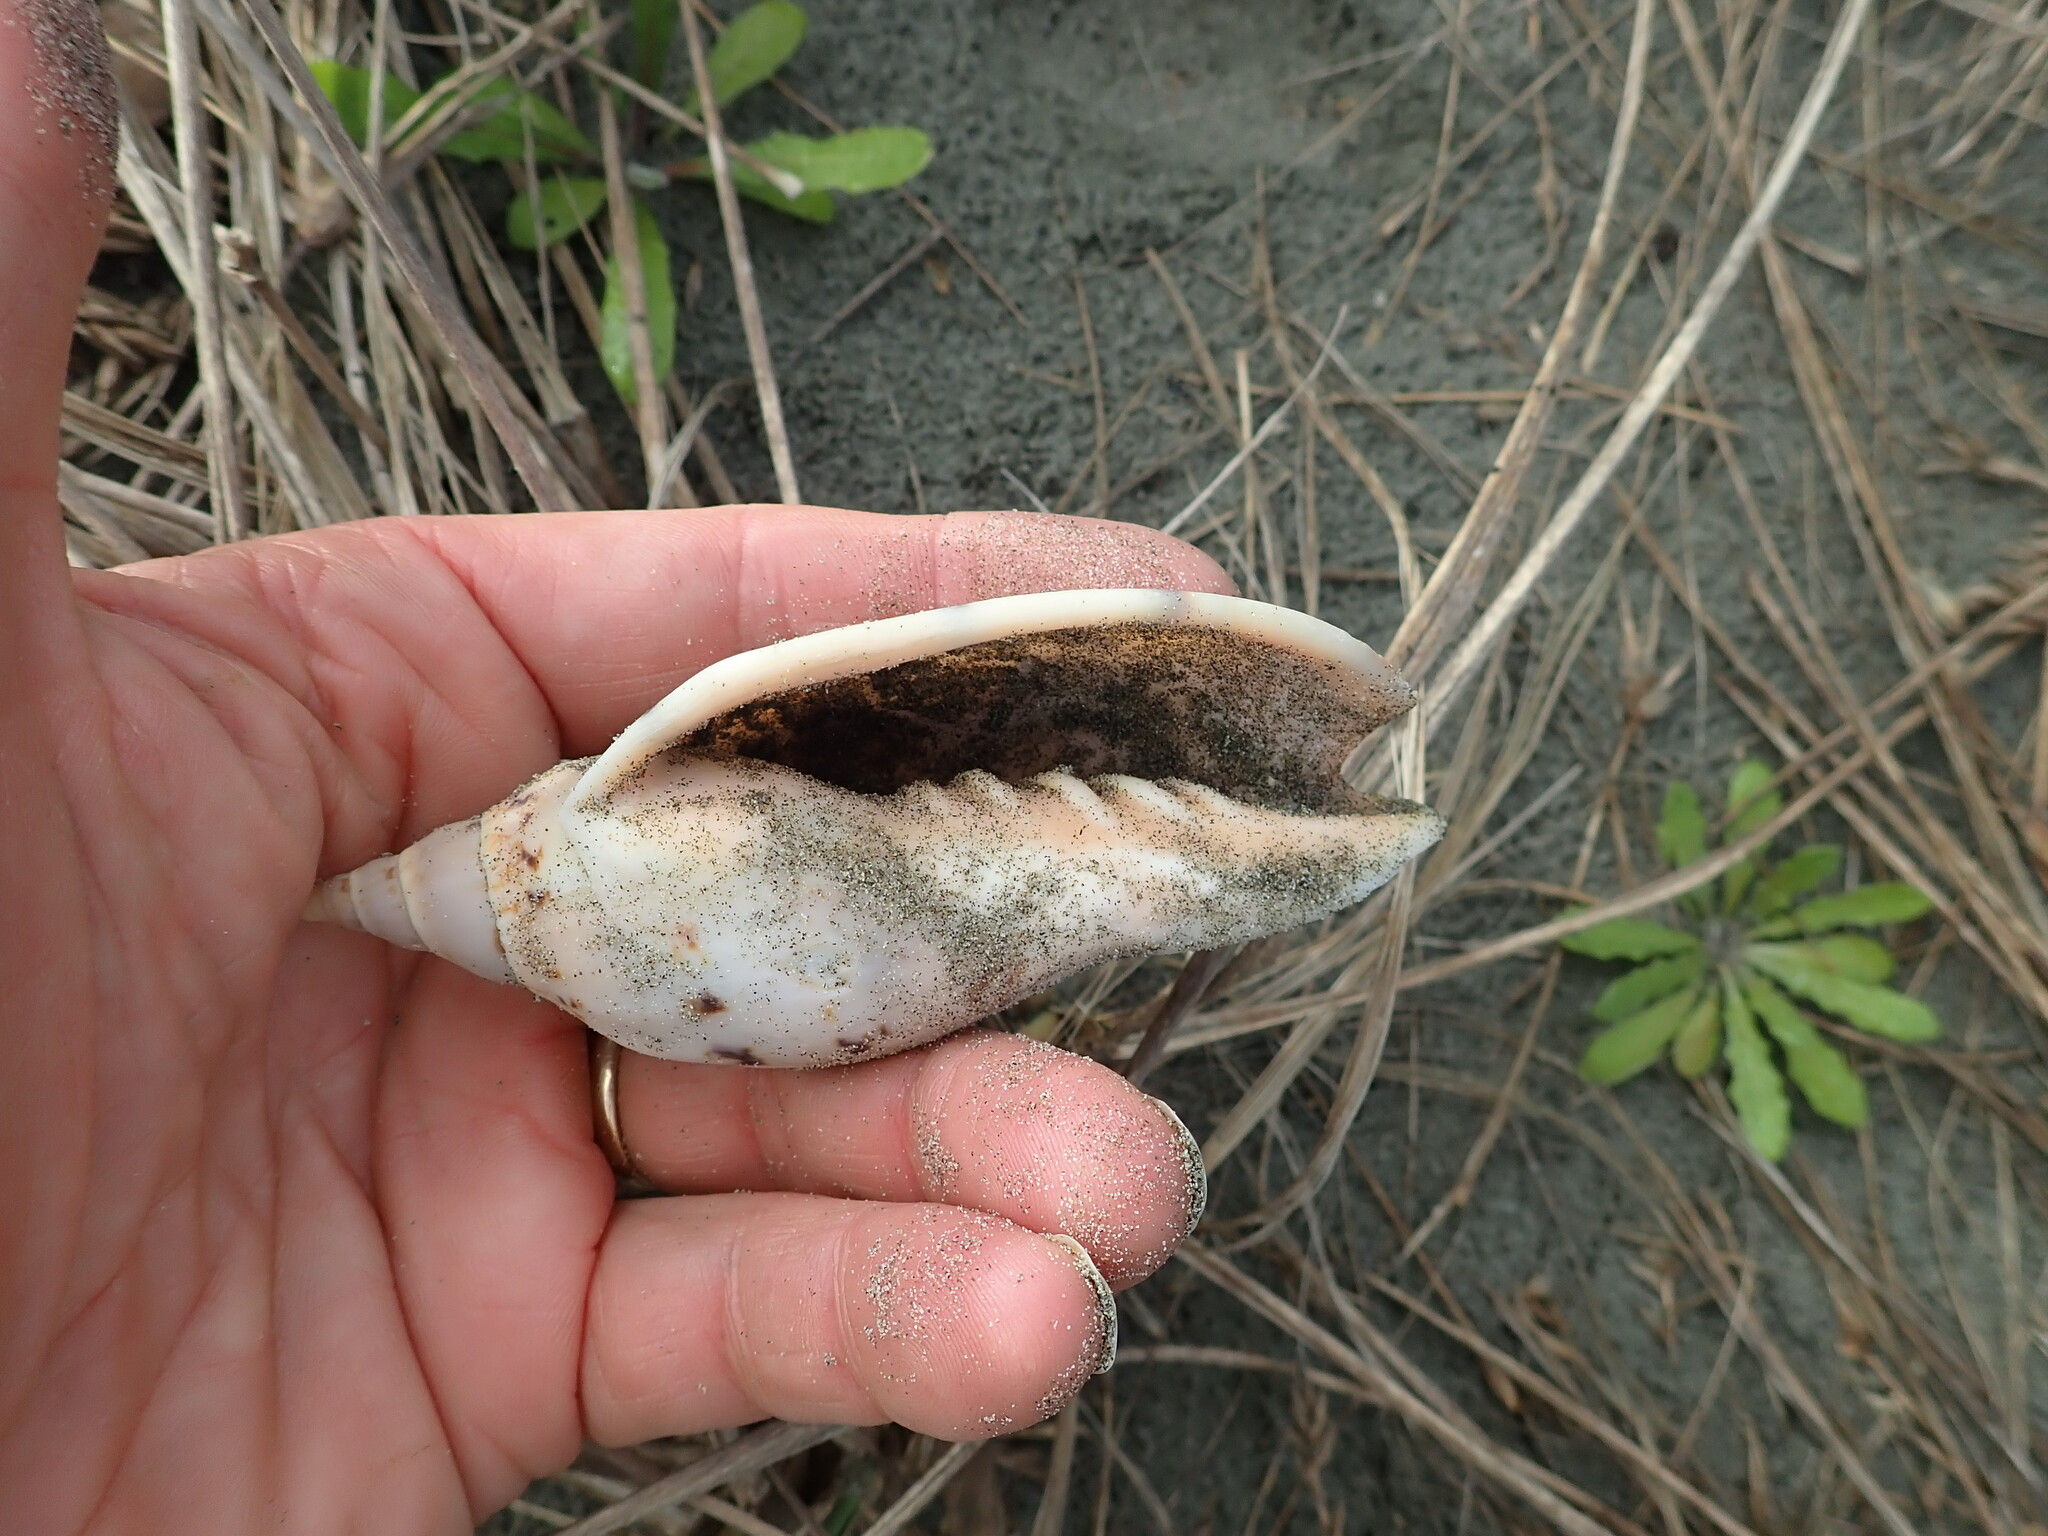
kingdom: Animalia
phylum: Mollusca
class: Gastropoda
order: Neogastropoda
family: Volutidae
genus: Alcithoe
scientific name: Alcithoe arabica
